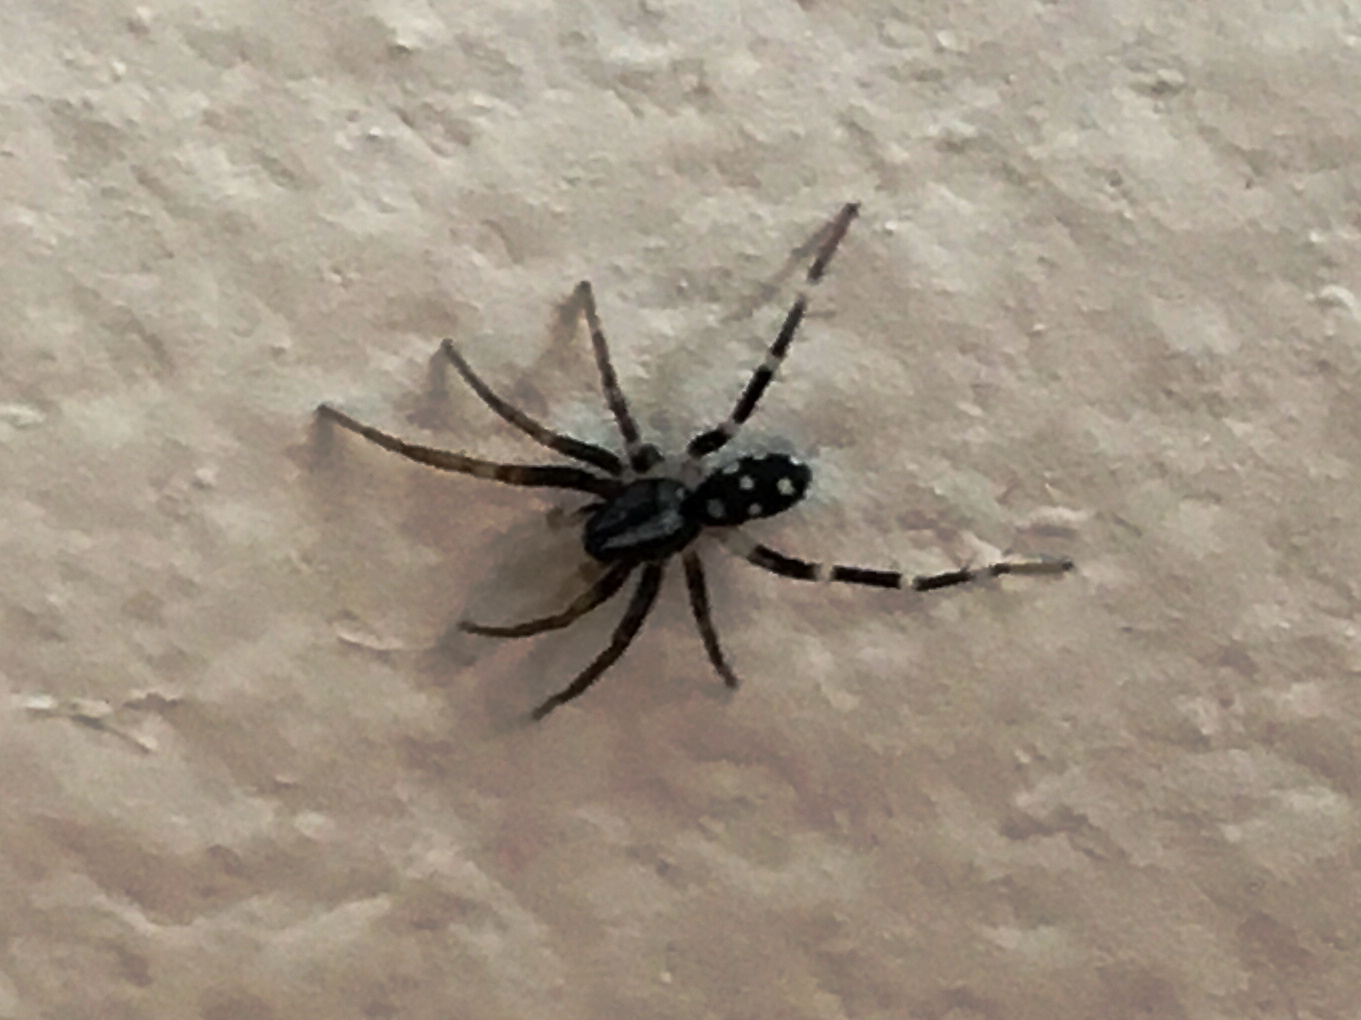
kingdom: Animalia
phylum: Arthropoda
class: Arachnida
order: Araneae
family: Corinnidae
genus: Nyssus
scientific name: Nyssus coloripes
